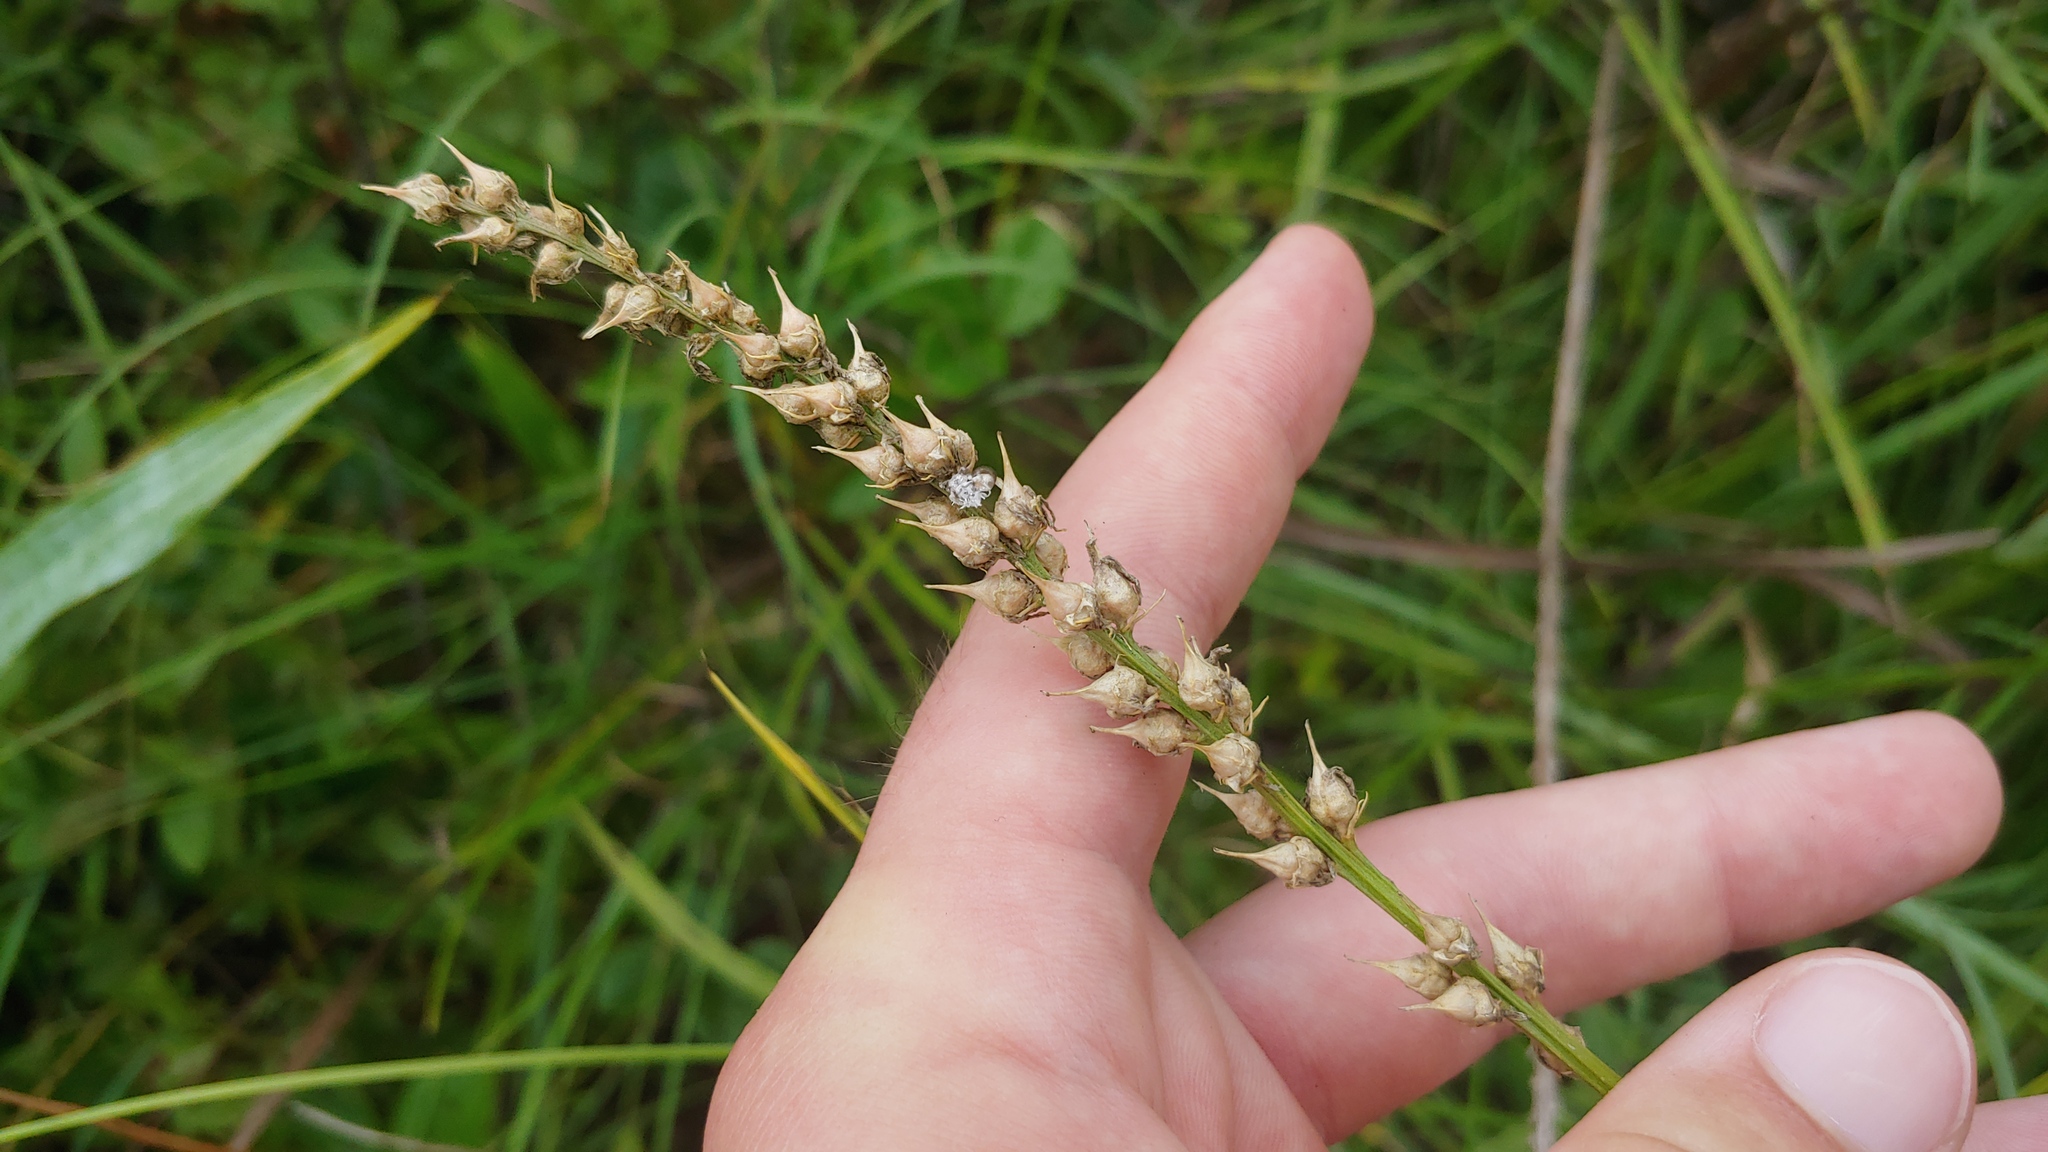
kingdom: Plantae
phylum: Tracheophyta
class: Liliopsida
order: Dioscoreales
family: Nartheciaceae
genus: Aletris
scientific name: Aletris farinosa
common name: Colicroot
